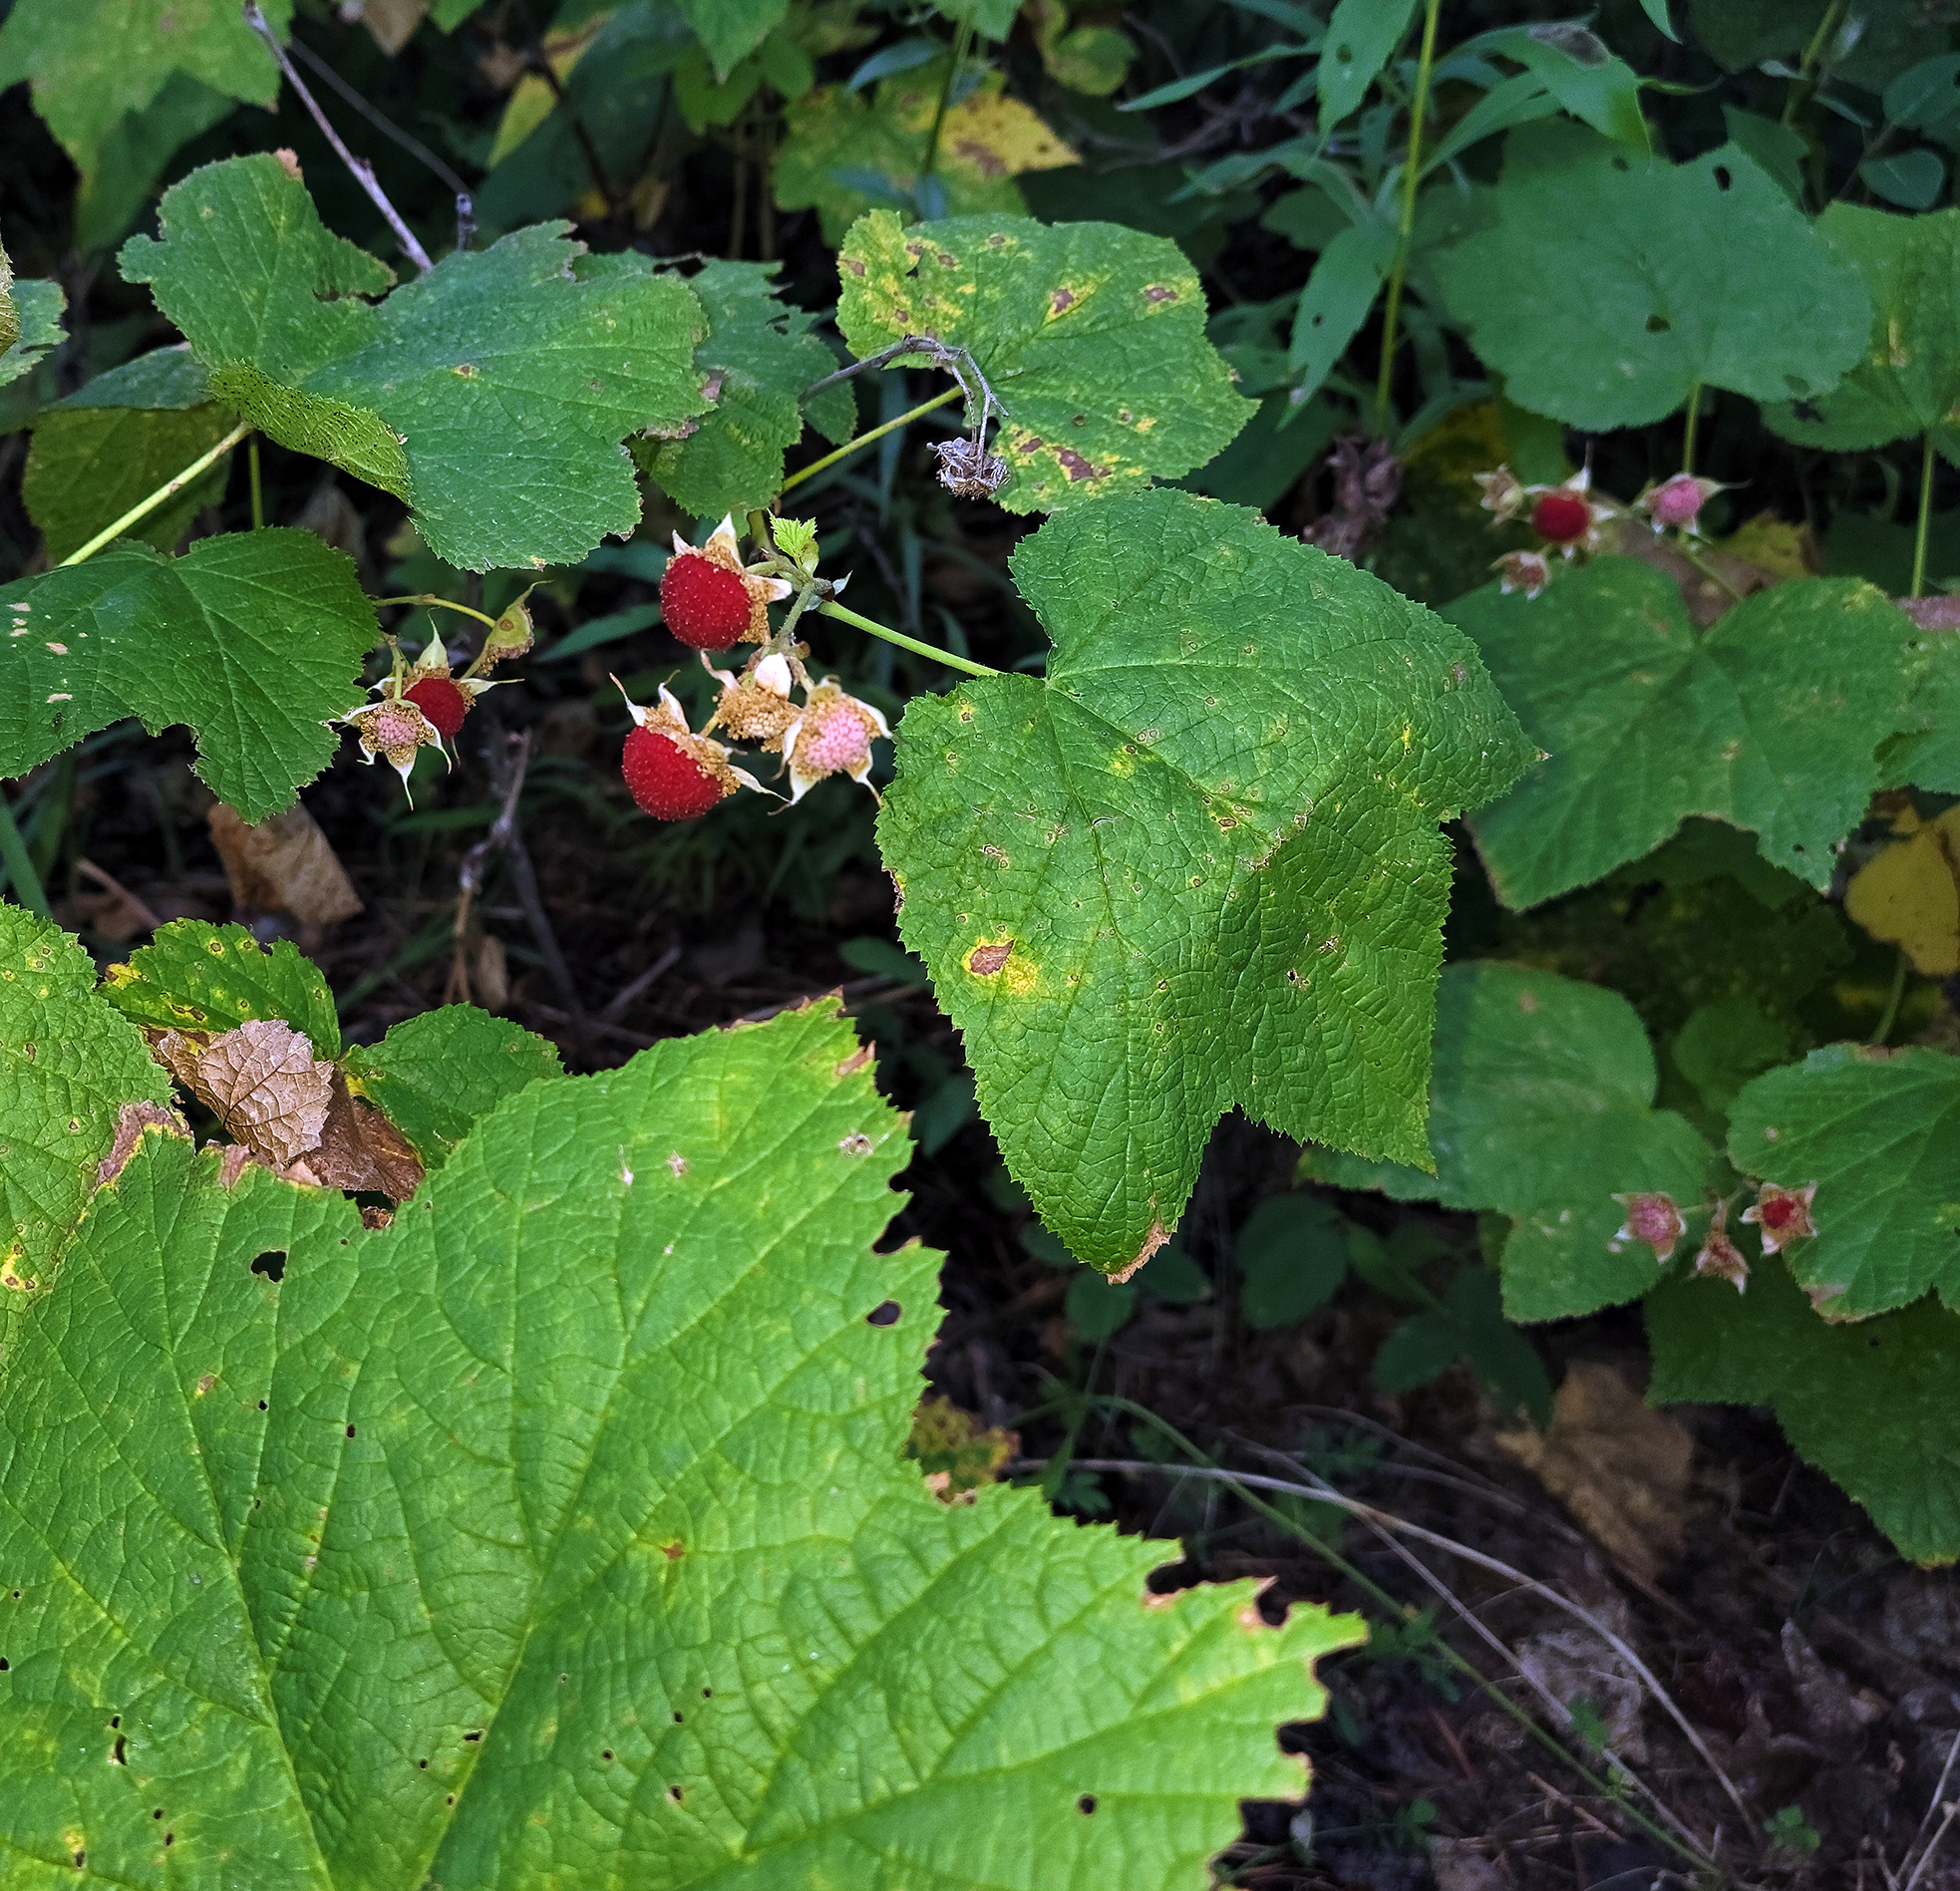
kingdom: Plantae
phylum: Tracheophyta
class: Magnoliopsida
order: Rosales
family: Rosaceae
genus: Rubus
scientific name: Rubus parviflorus
